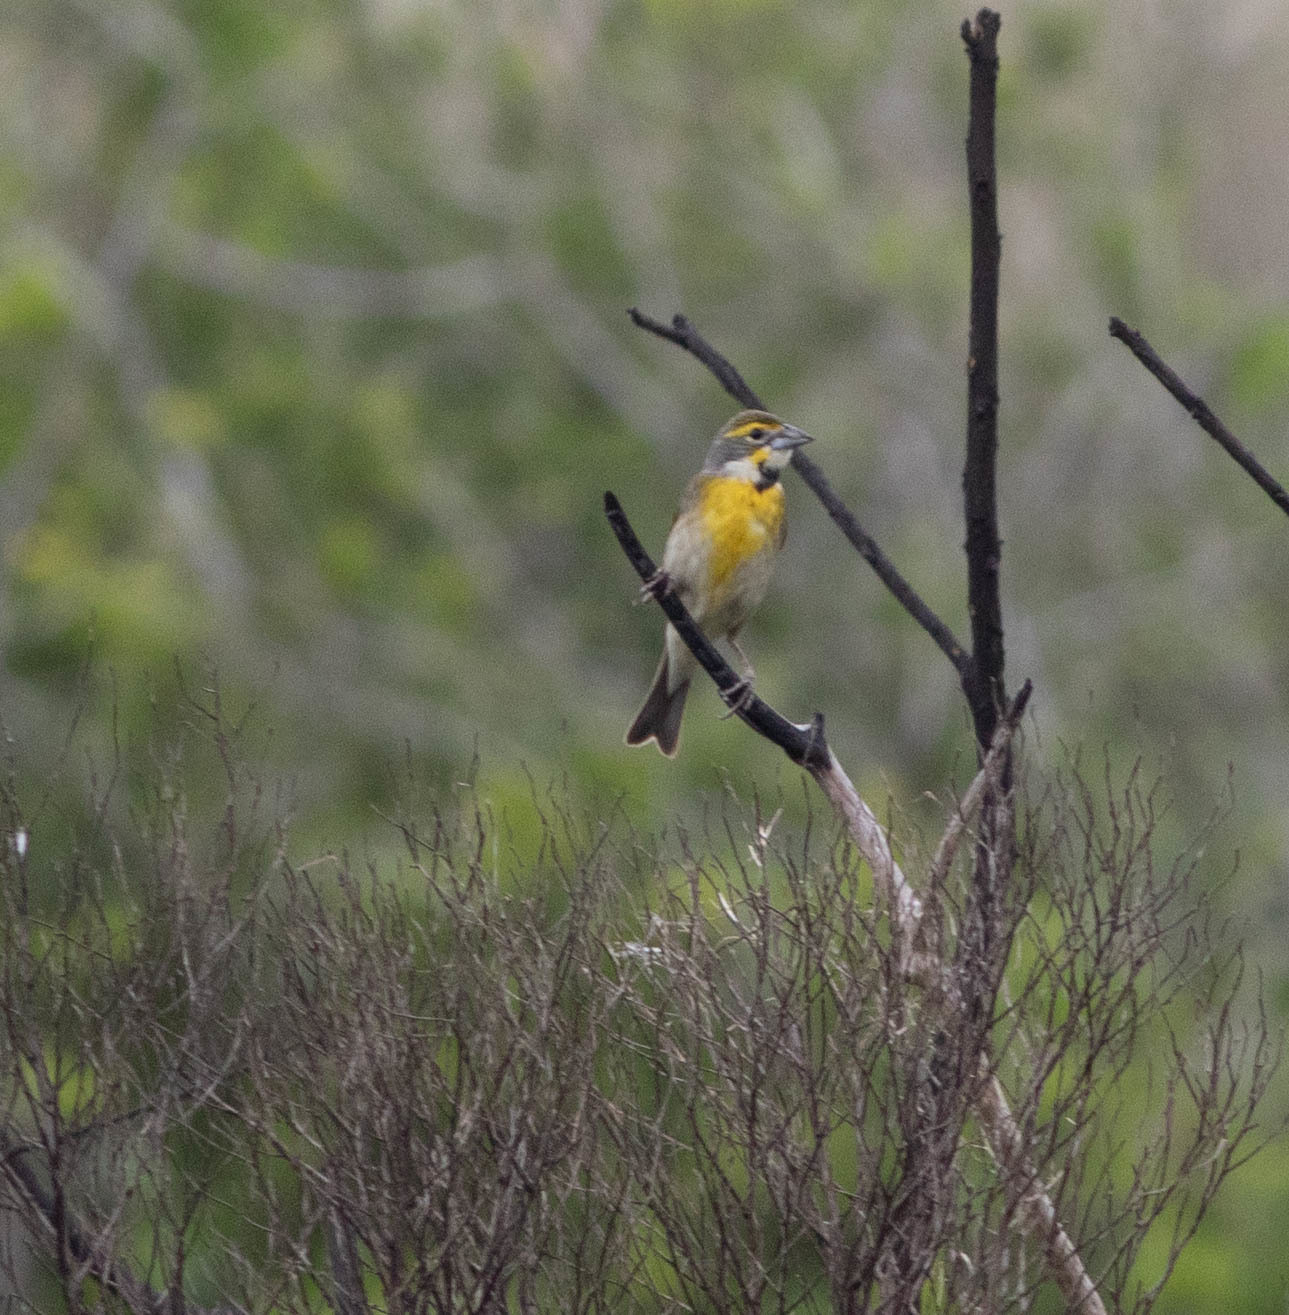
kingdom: Animalia
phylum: Chordata
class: Aves
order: Passeriformes
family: Cardinalidae
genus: Spiza
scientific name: Spiza americana
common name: Dickcissel
